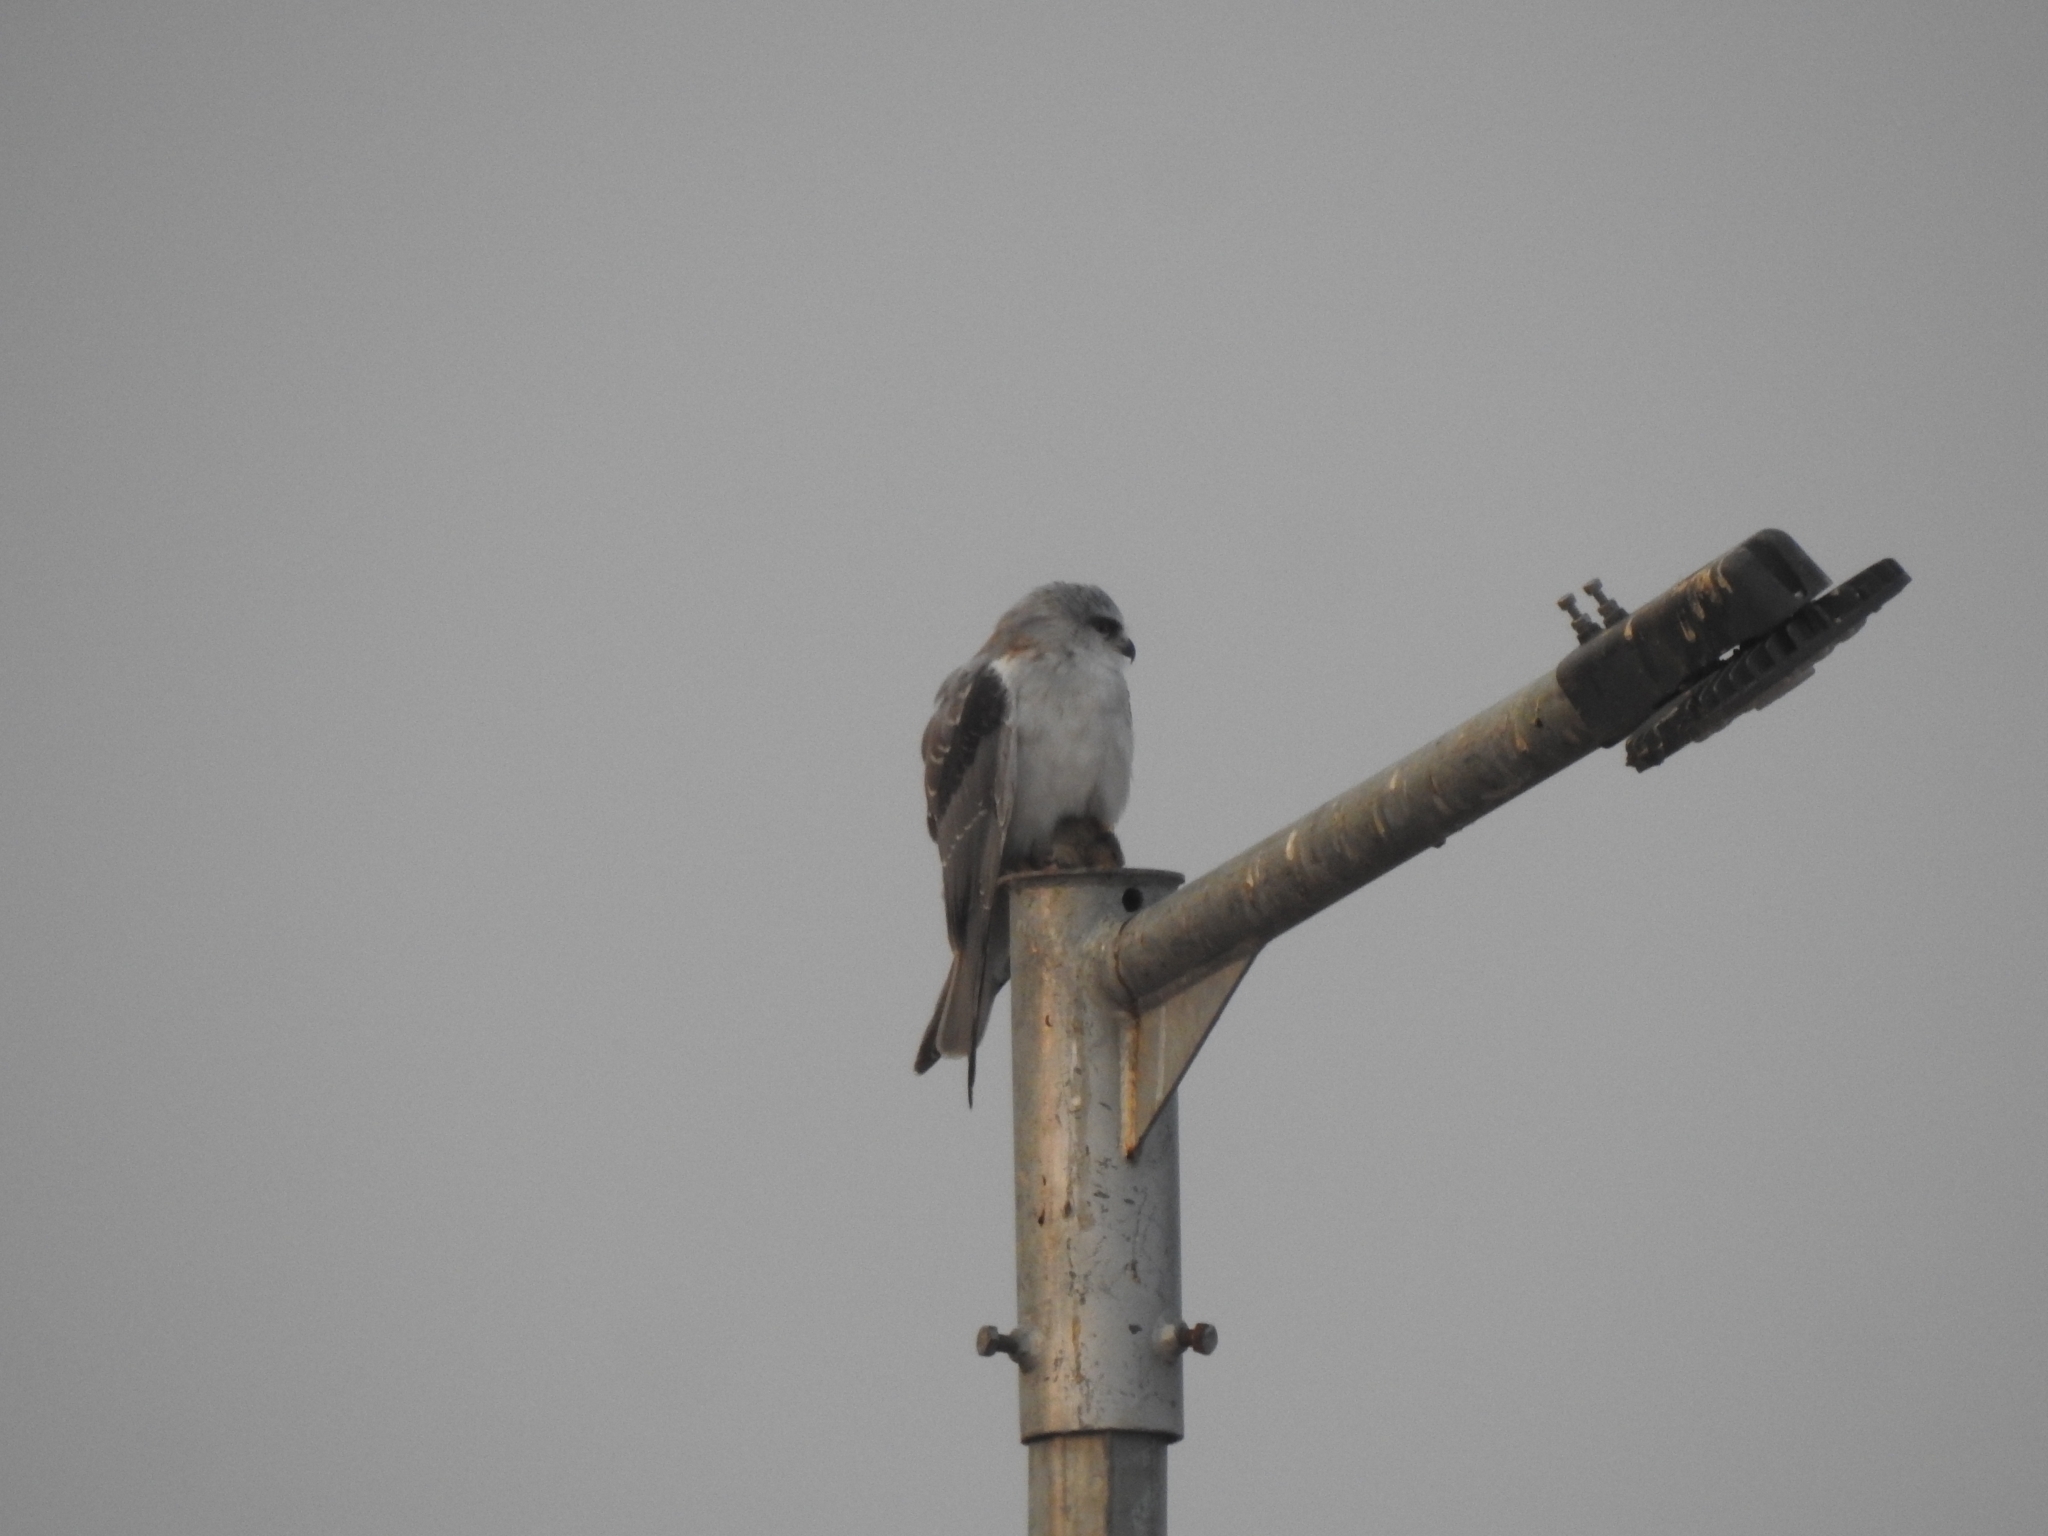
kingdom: Animalia
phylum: Chordata
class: Aves
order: Accipitriformes
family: Accipitridae
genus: Elanus
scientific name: Elanus caeruleus
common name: Black-winged kite
